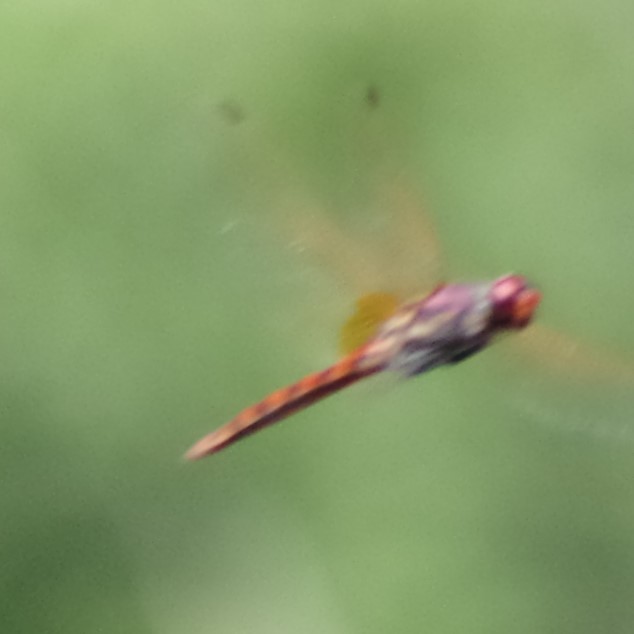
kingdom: Animalia
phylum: Arthropoda
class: Insecta
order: Odonata
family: Libellulidae
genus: Trithemis
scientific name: Trithemis annulata
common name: Violet dropwing
